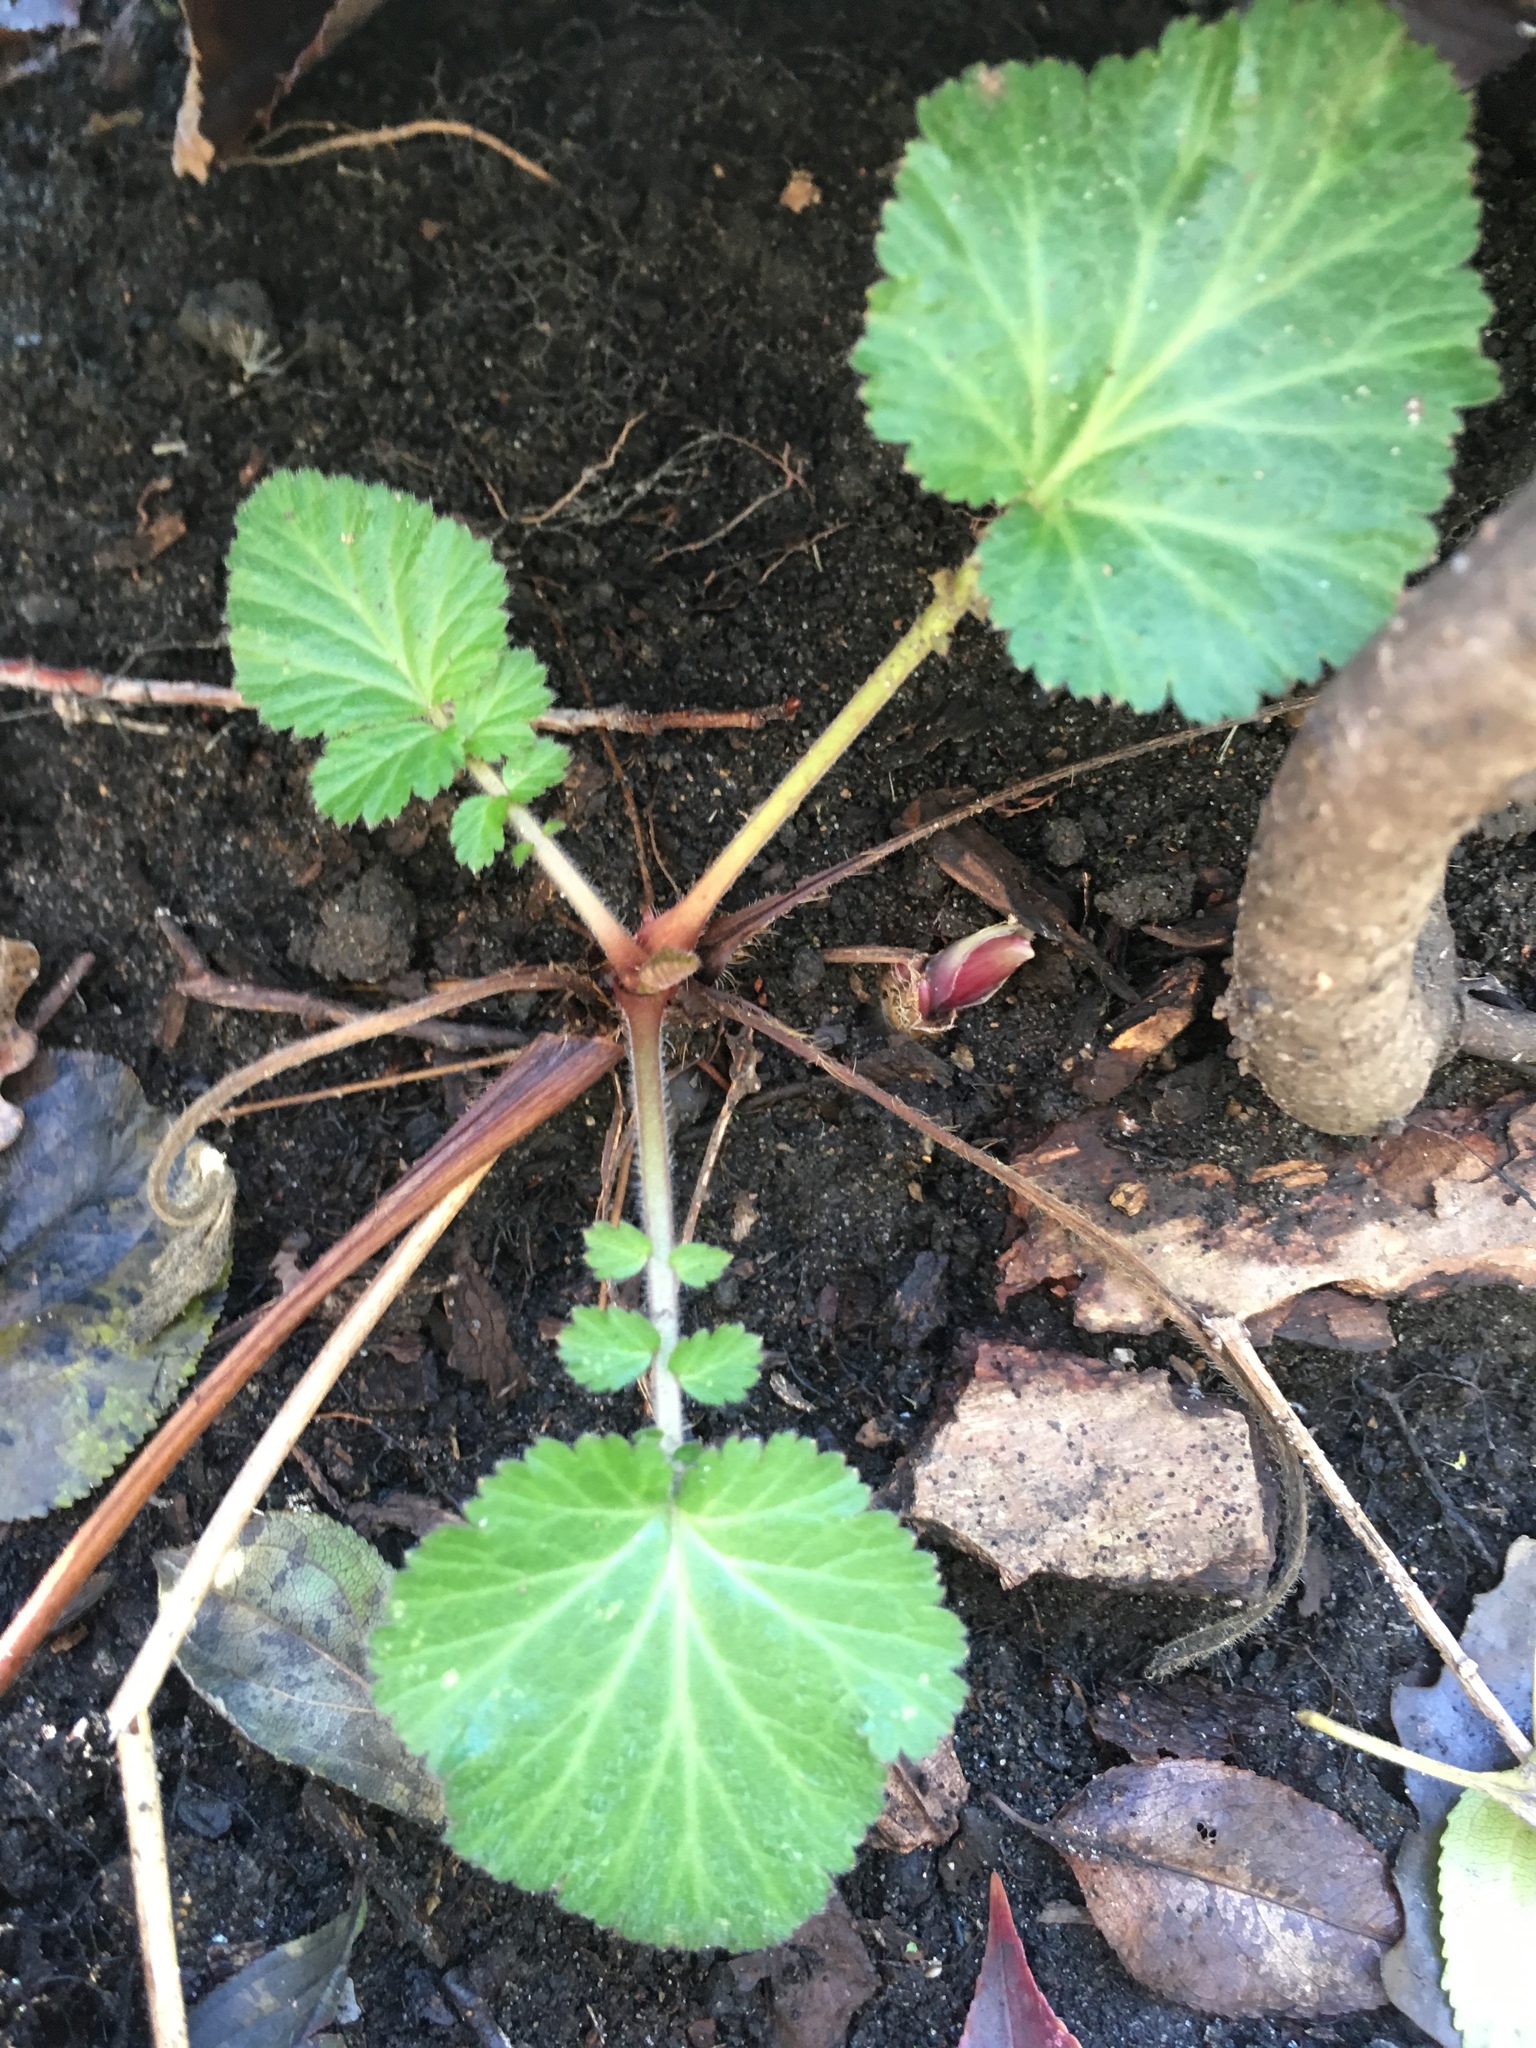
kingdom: Plantae
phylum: Tracheophyta
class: Magnoliopsida
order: Rosales
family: Rosaceae
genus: Geum
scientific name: Geum canadense
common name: White avens
